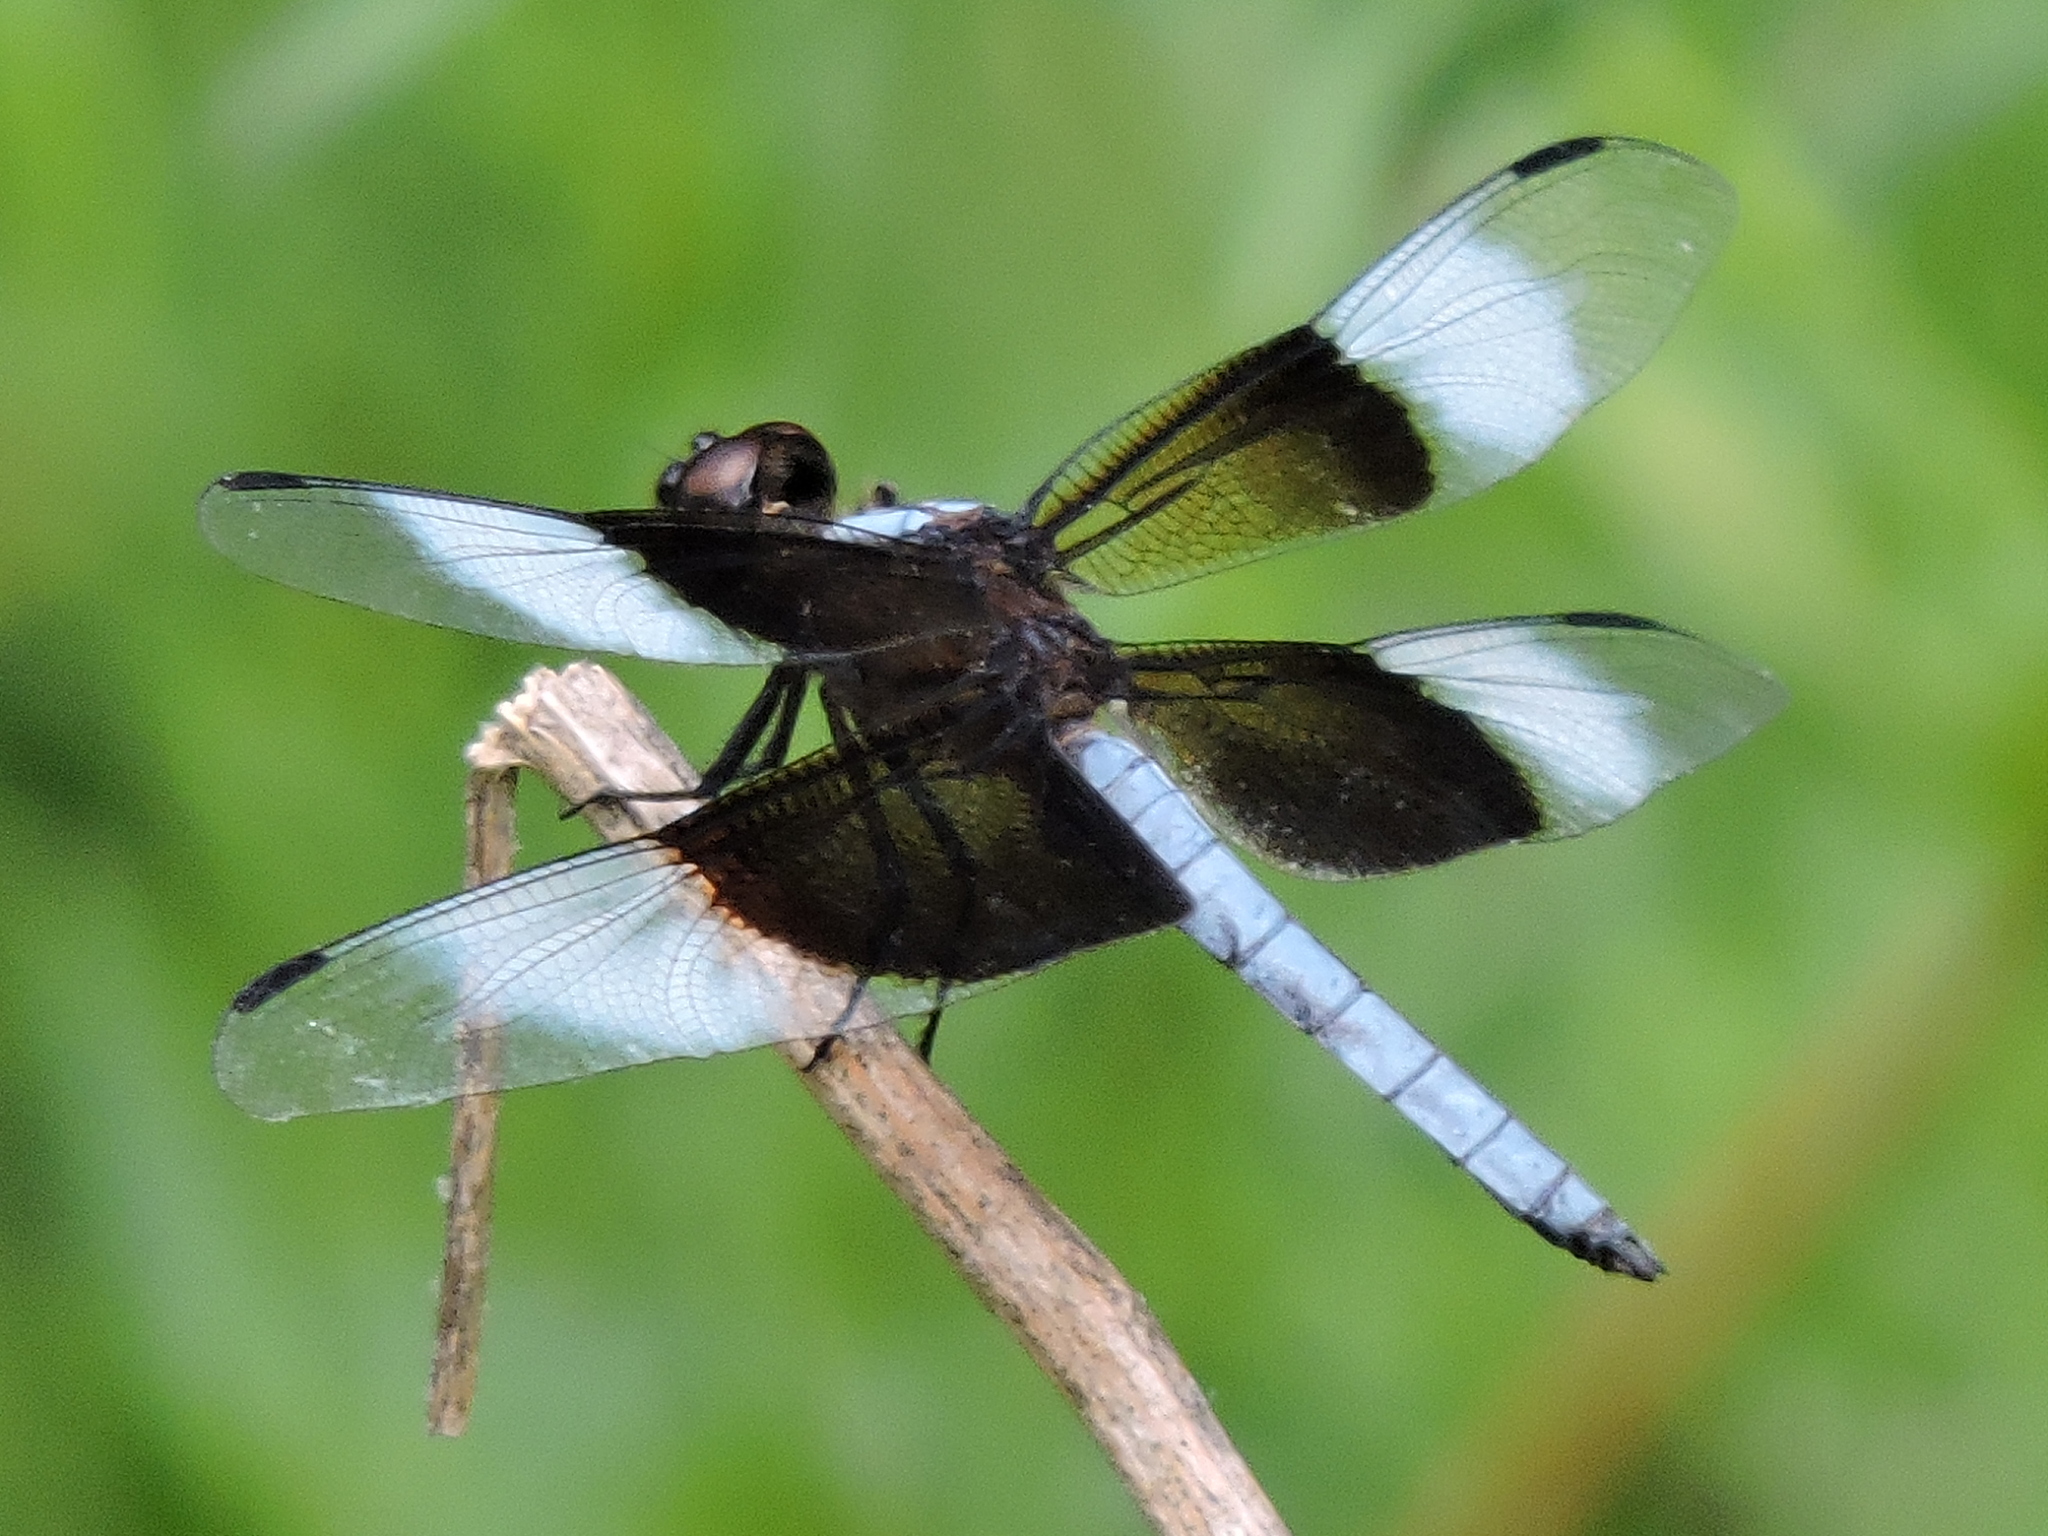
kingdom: Animalia
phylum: Arthropoda
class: Insecta
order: Odonata
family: Libellulidae
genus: Libellula
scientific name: Libellula luctuosa
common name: Widow skimmer
